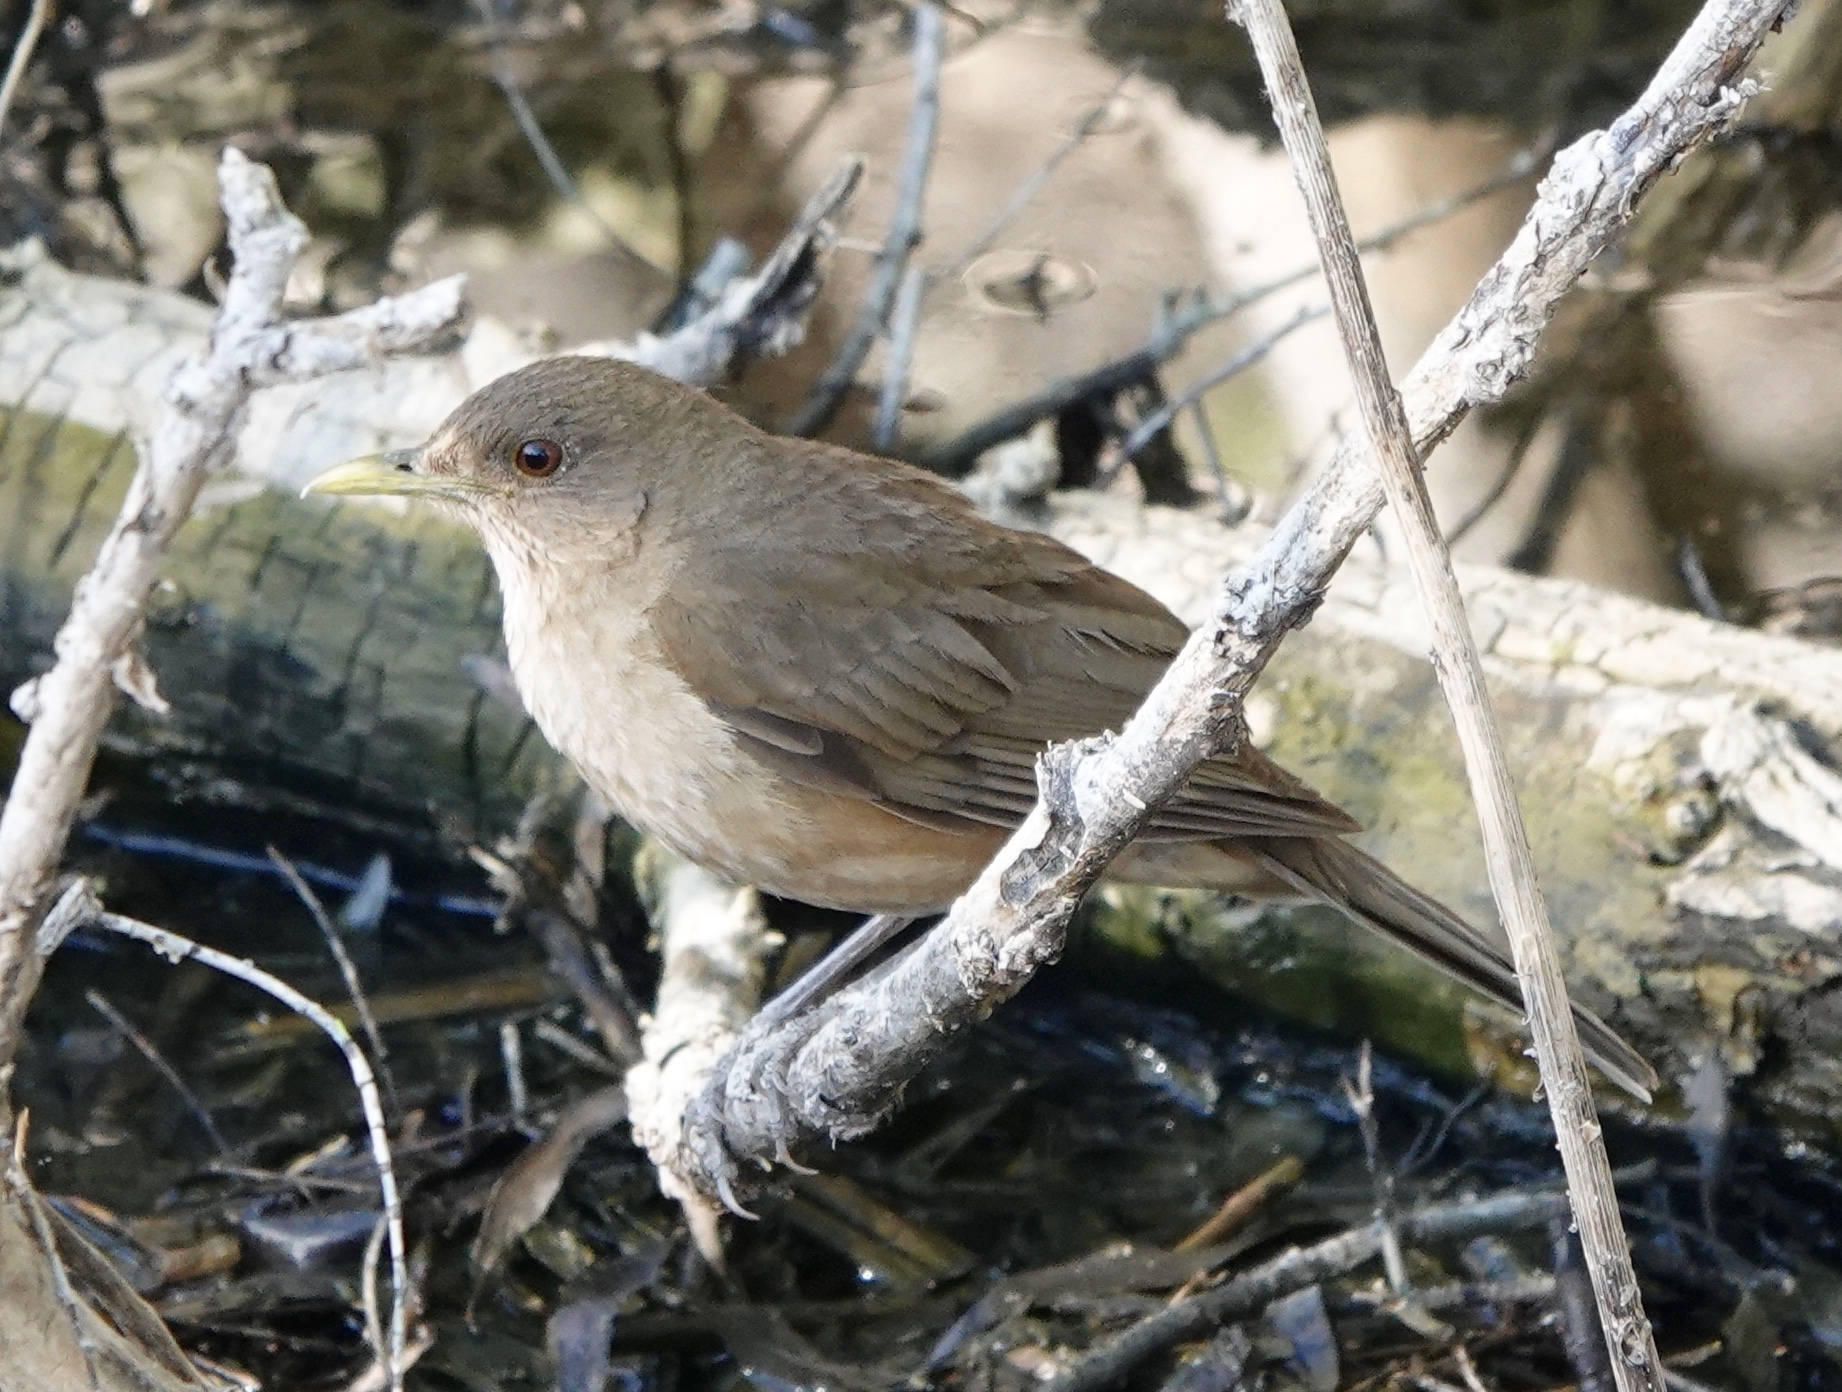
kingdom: Animalia
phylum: Chordata
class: Aves
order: Passeriformes
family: Turdidae
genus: Turdus
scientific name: Turdus grayi
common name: Clay-colored thrush
